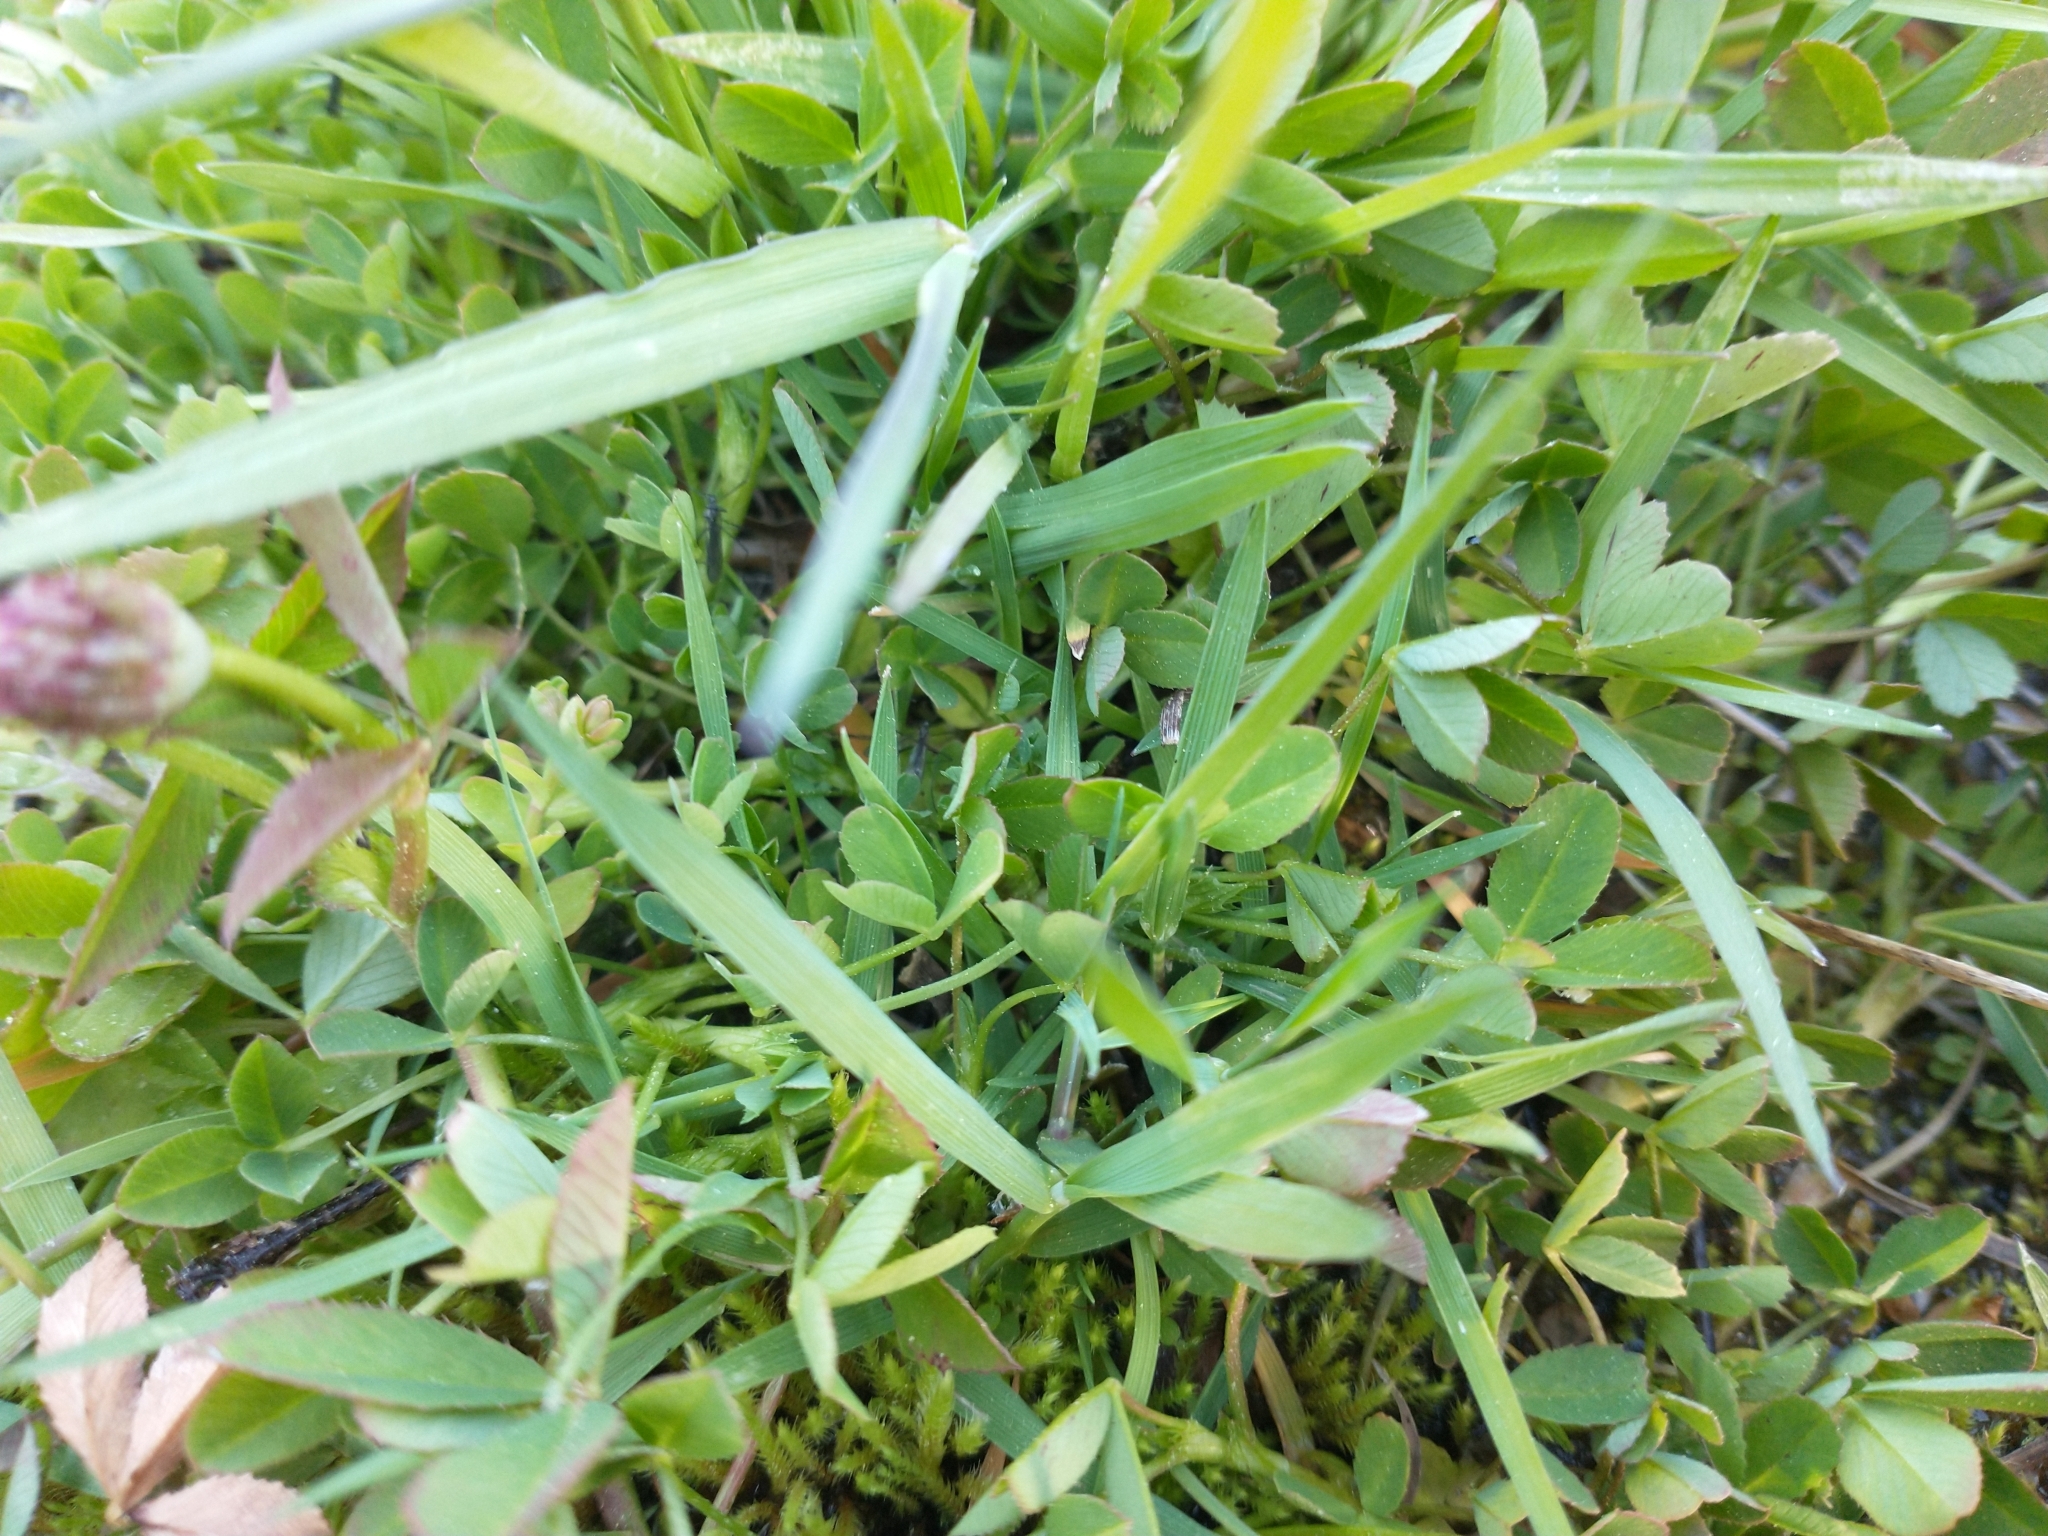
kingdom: Plantae
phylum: Tracheophyta
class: Magnoliopsida
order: Fabales
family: Fabaceae
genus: Trifolium
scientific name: Trifolium wormskioldii
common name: Springbank clover
